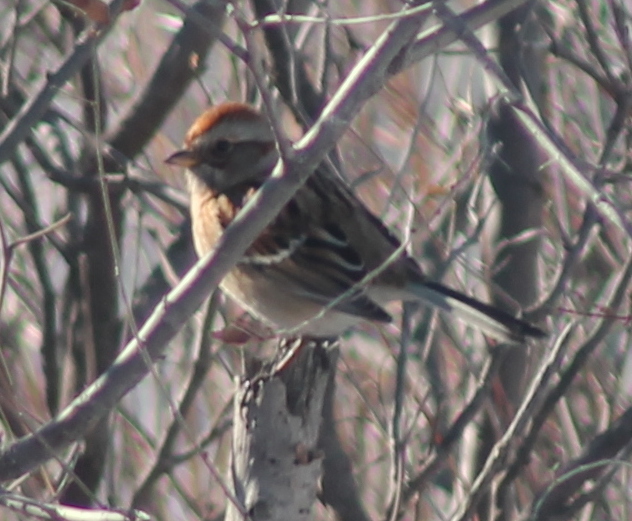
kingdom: Animalia
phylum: Chordata
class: Aves
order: Passeriformes
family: Passerellidae
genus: Spizelloides
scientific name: Spizelloides arborea
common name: American tree sparrow
